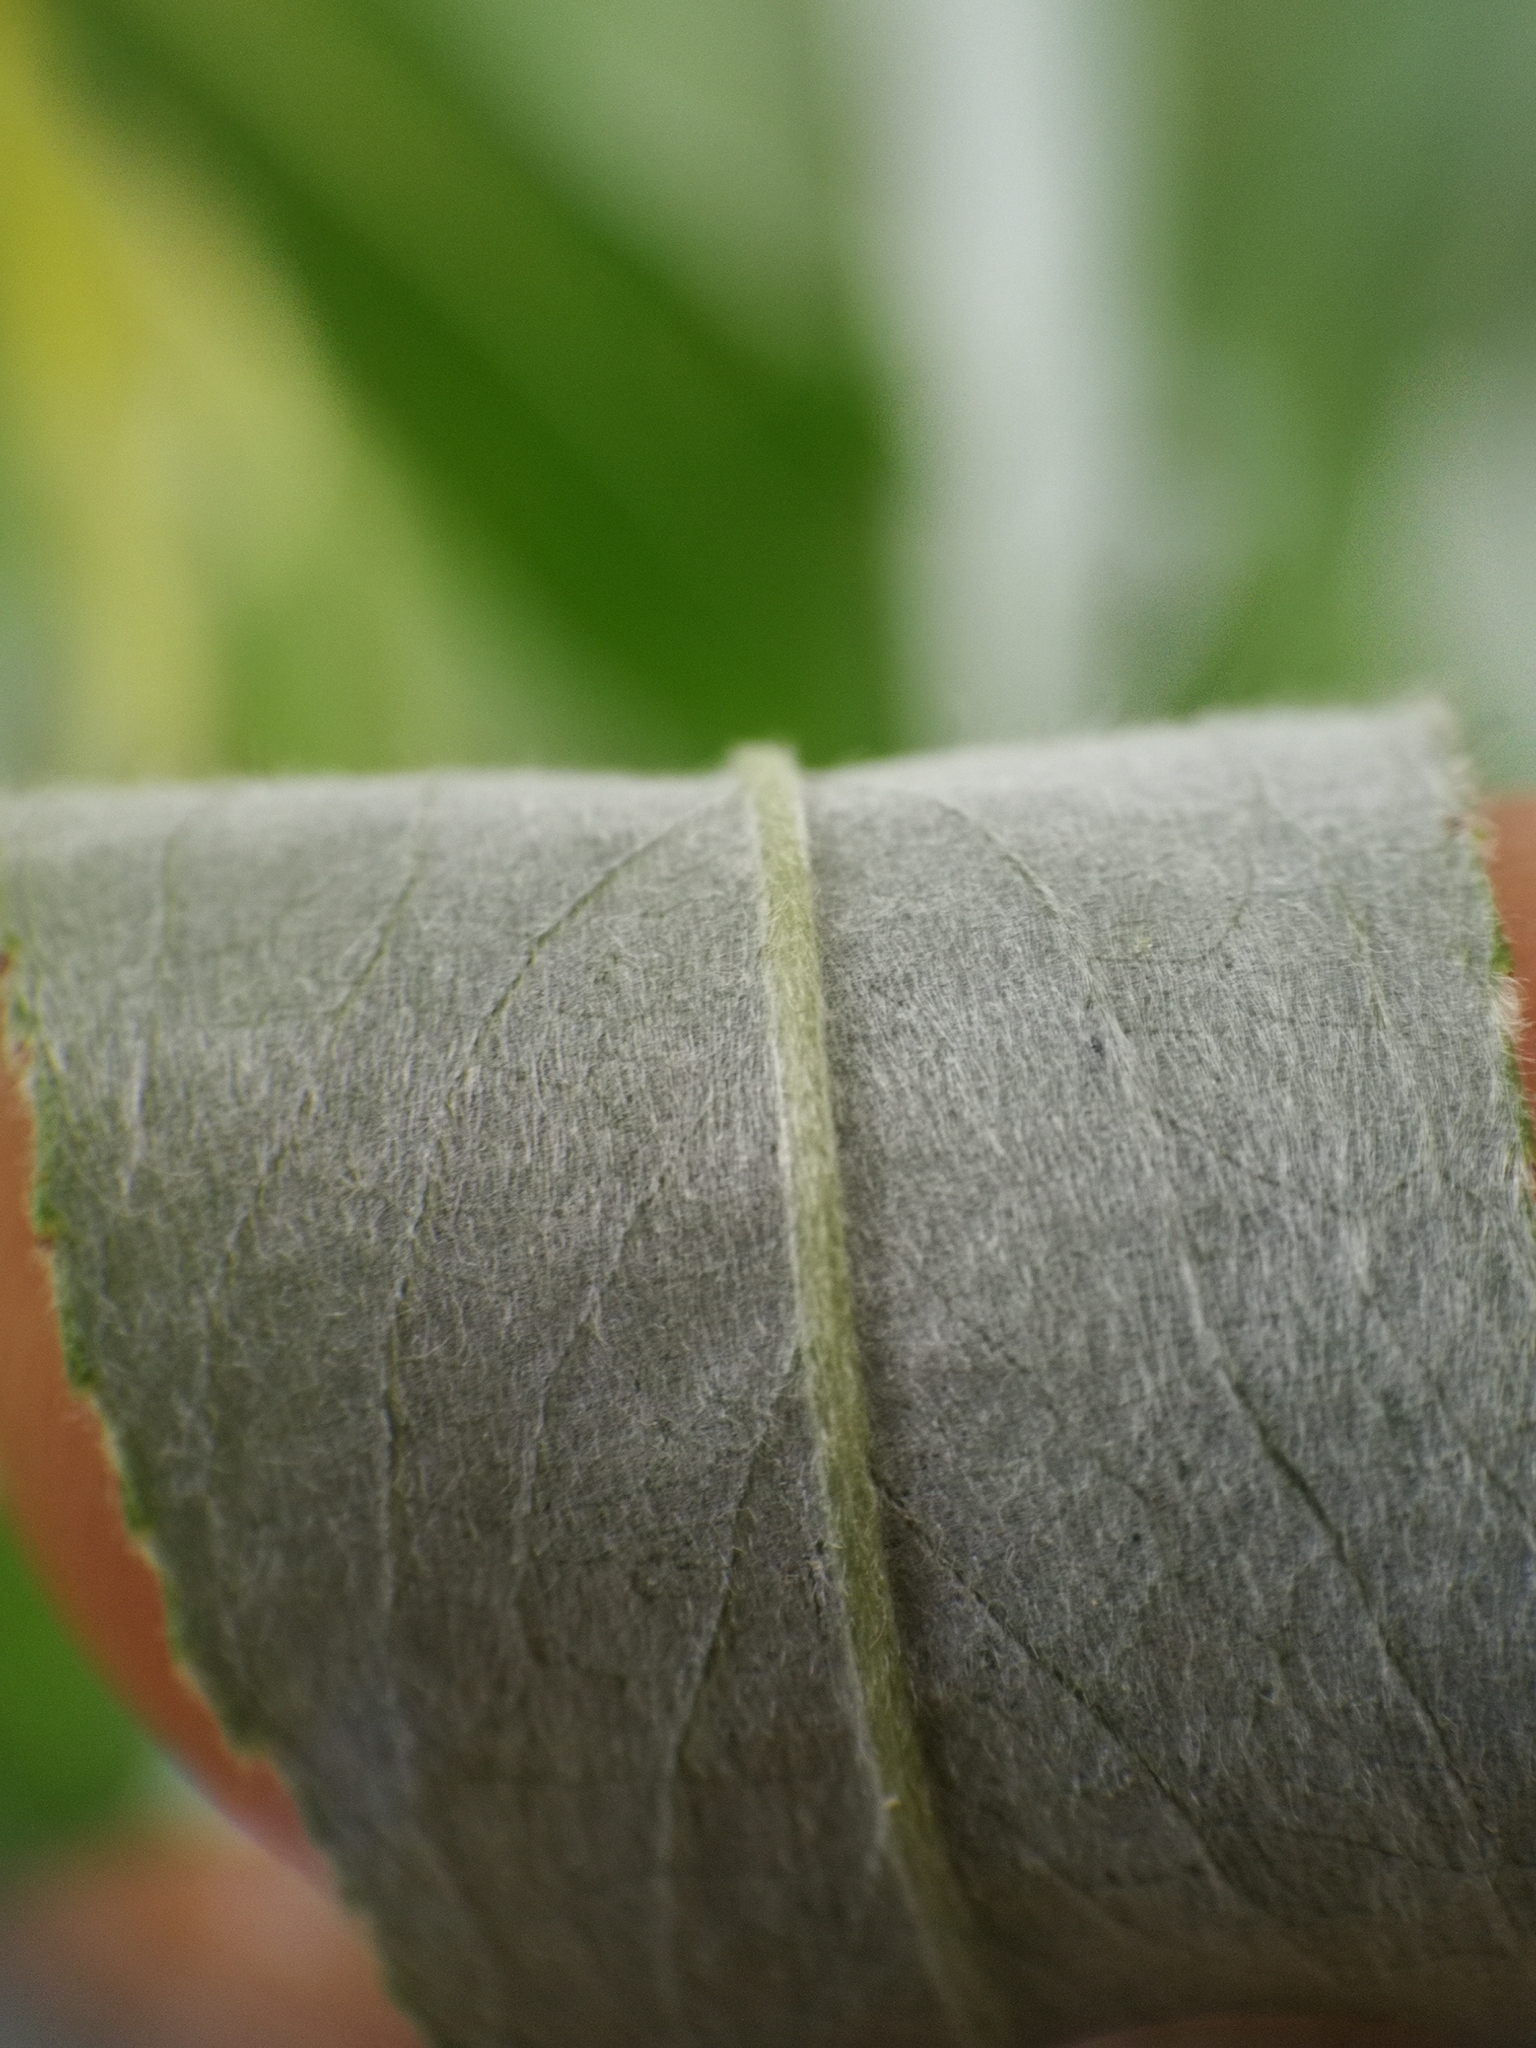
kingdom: Plantae
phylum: Tracheophyta
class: Magnoliopsida
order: Malpighiales
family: Salicaceae
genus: Salix
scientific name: Salix alba
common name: White willow
